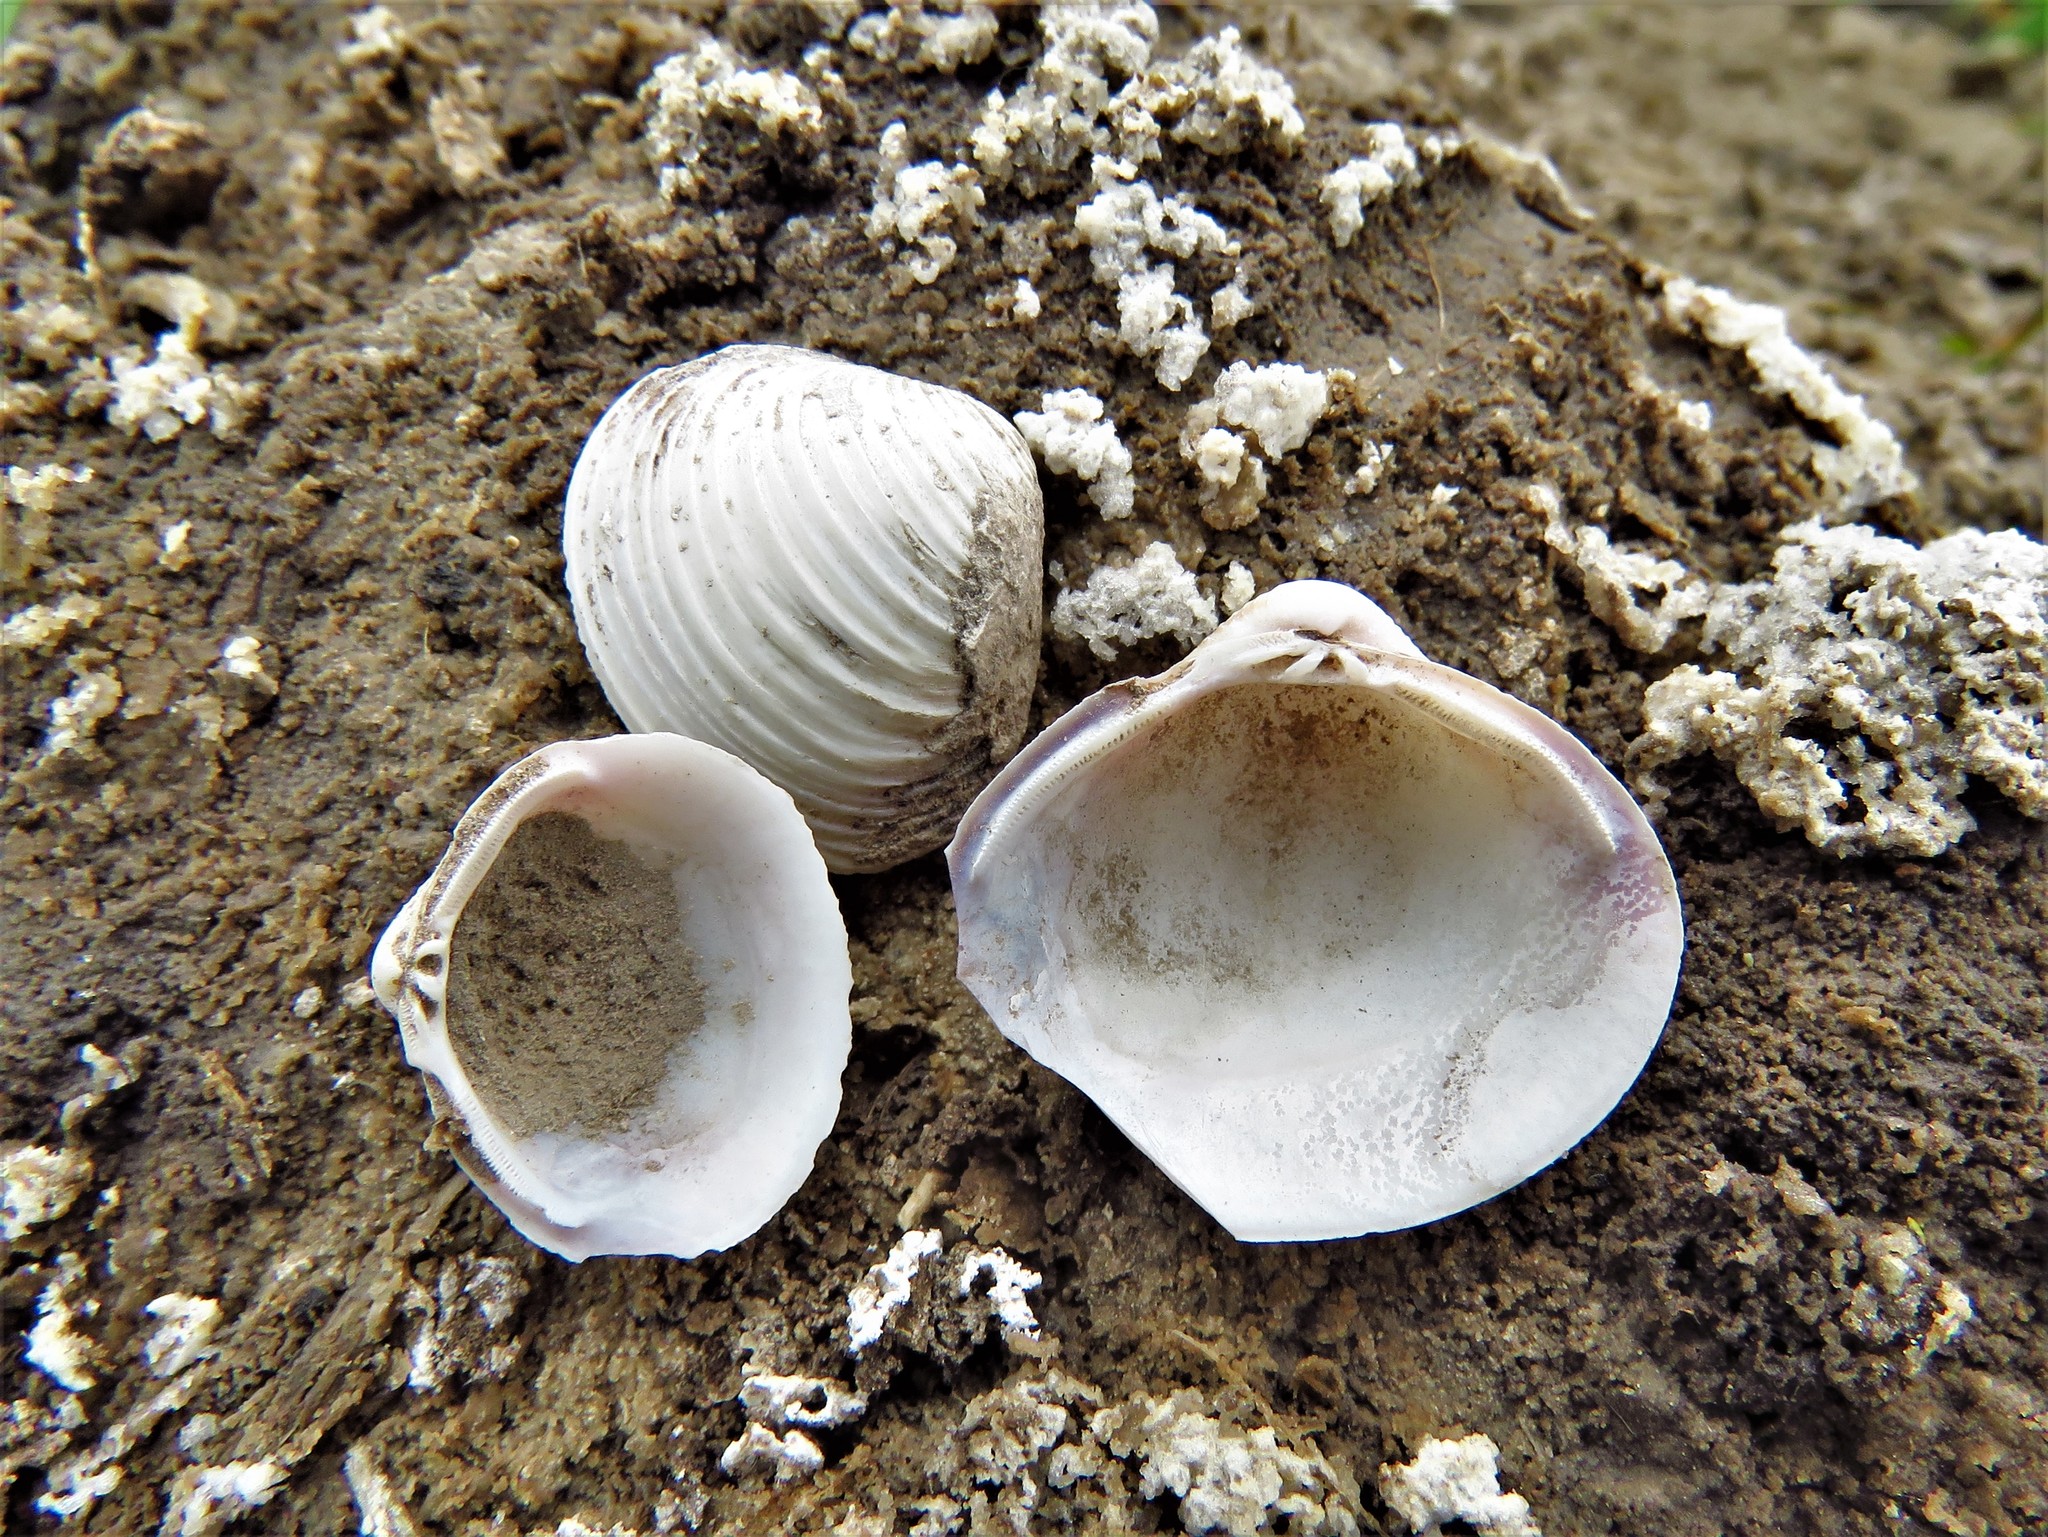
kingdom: Animalia
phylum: Mollusca
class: Bivalvia
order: Venerida
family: Cyrenidae
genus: Corbicula
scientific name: Corbicula fluminea
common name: Asian clam
